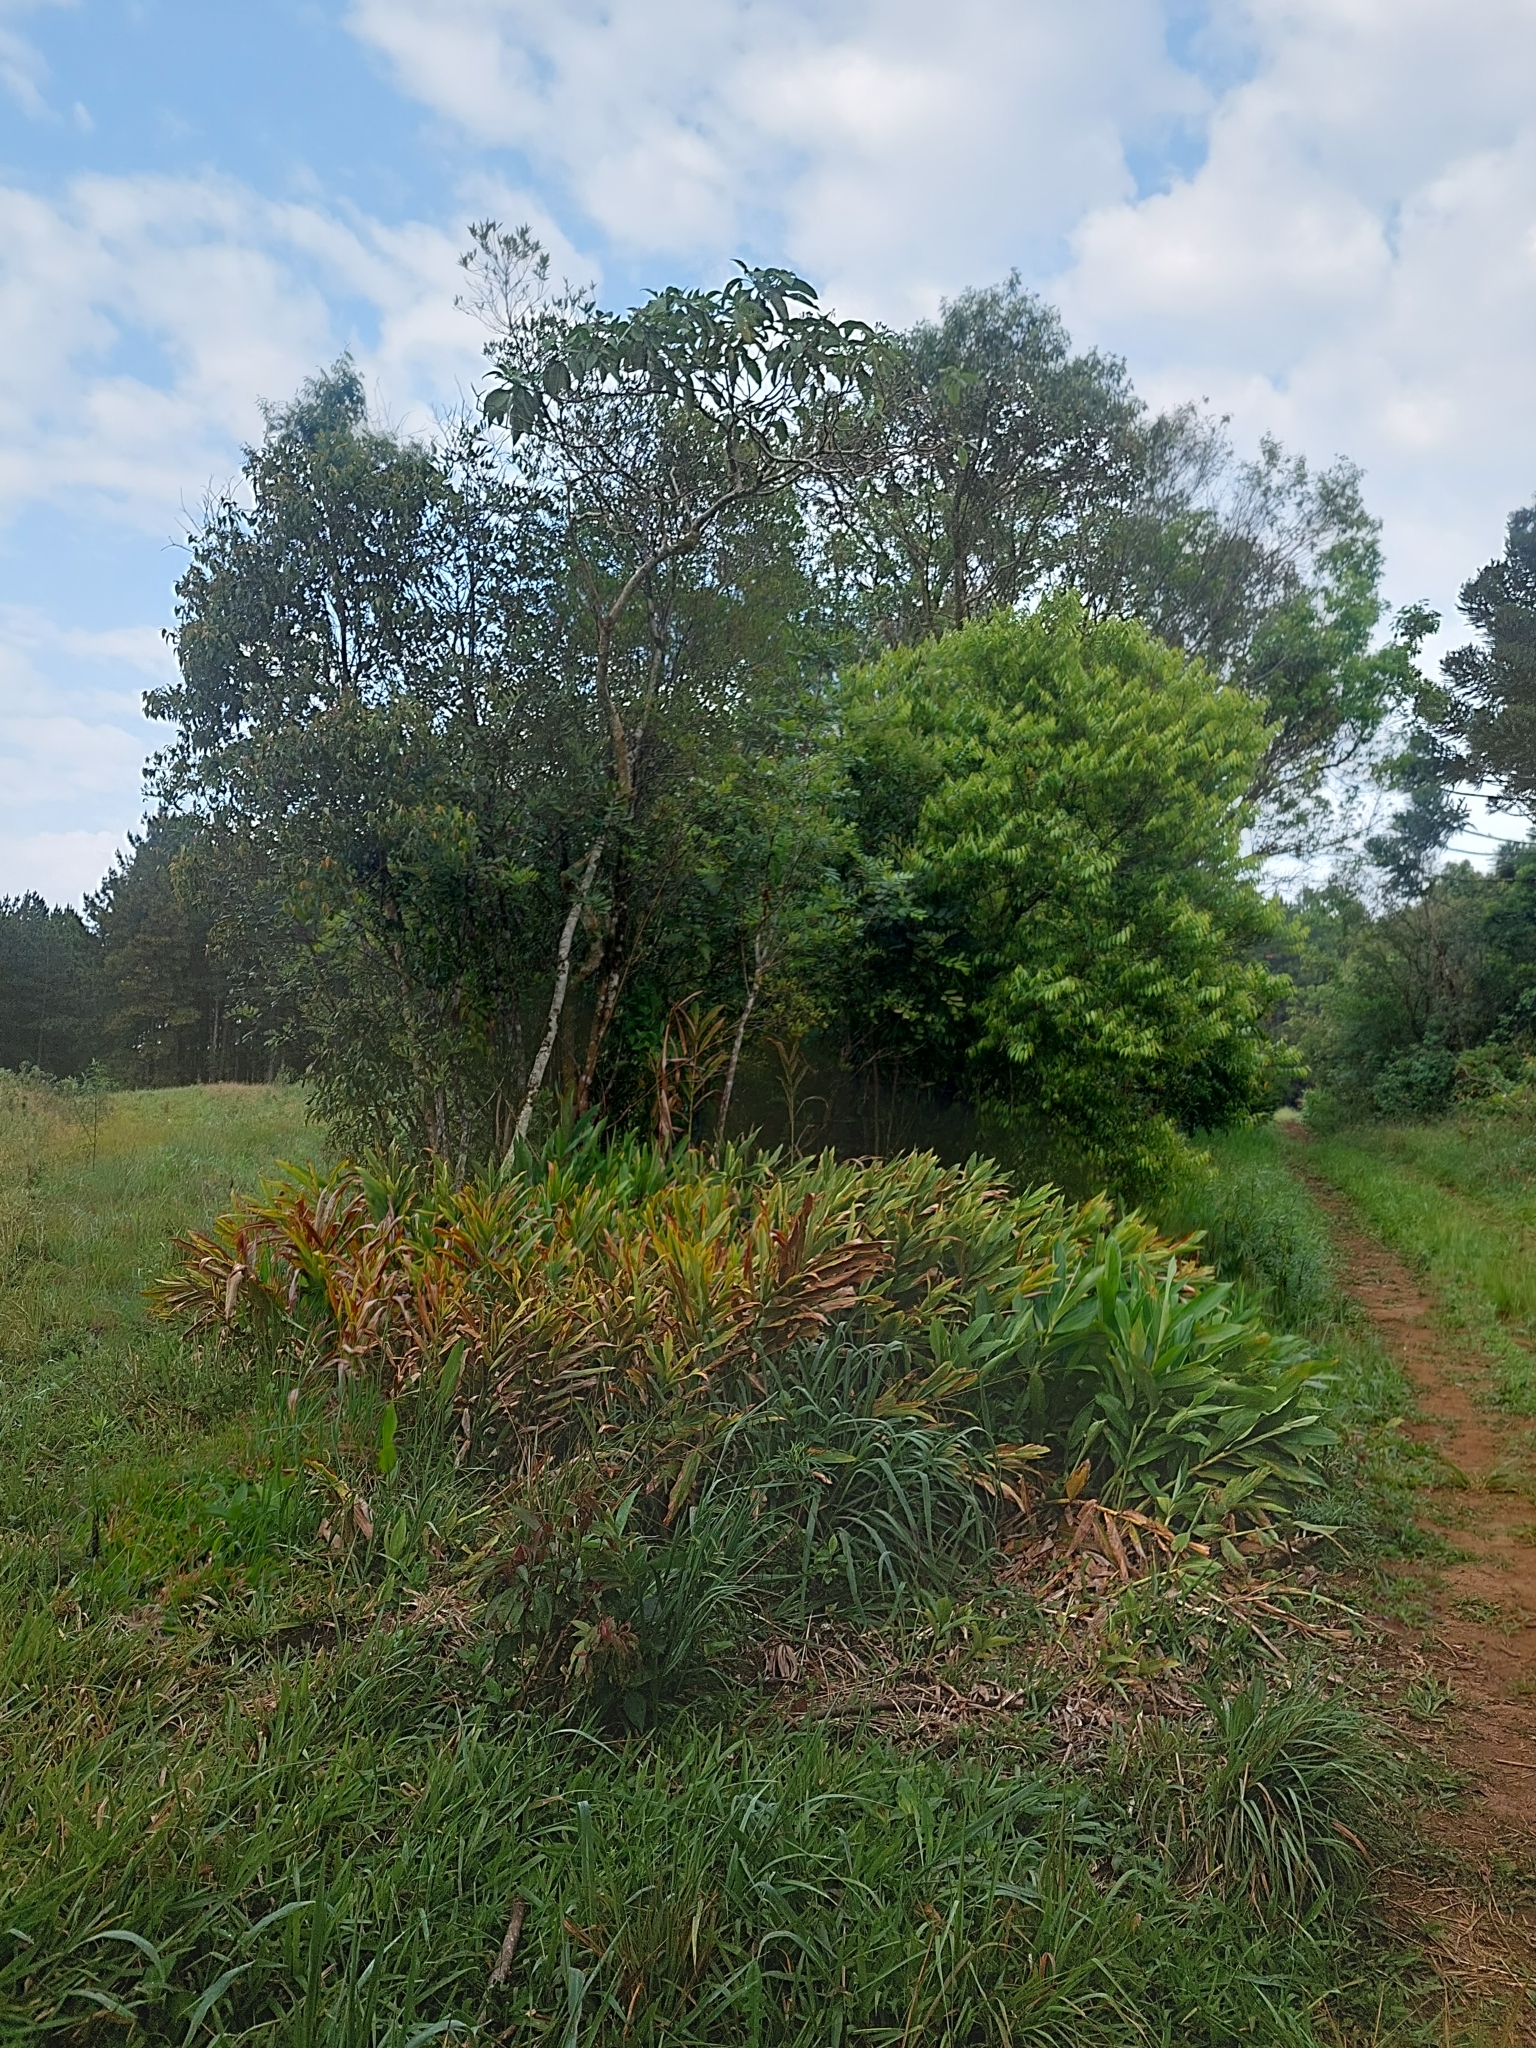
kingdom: Plantae
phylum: Tracheophyta
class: Liliopsida
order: Zingiberales
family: Zingiberaceae
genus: Hedychium
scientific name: Hedychium coronarium
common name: White garland-lily
